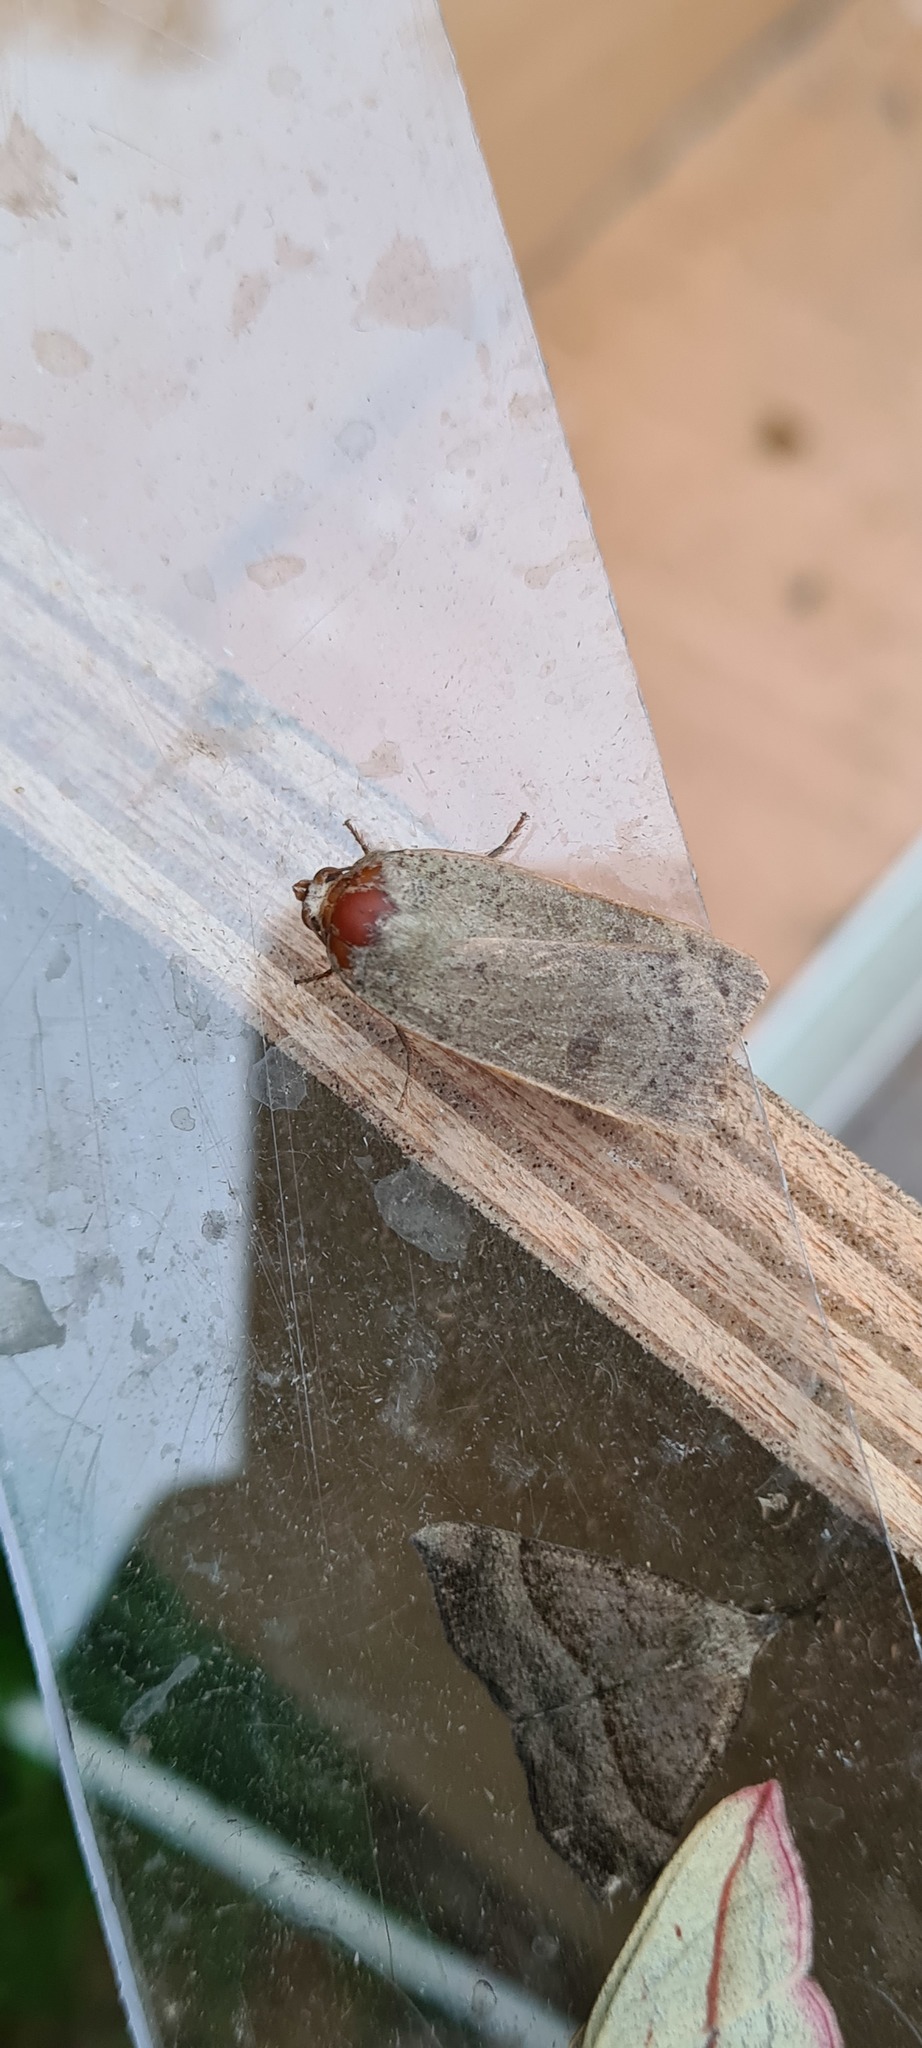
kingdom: Animalia
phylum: Arthropoda
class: Insecta
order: Lepidoptera
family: Noctuidae
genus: Noctua
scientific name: Noctua comes
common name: Lesser yellow underwing
